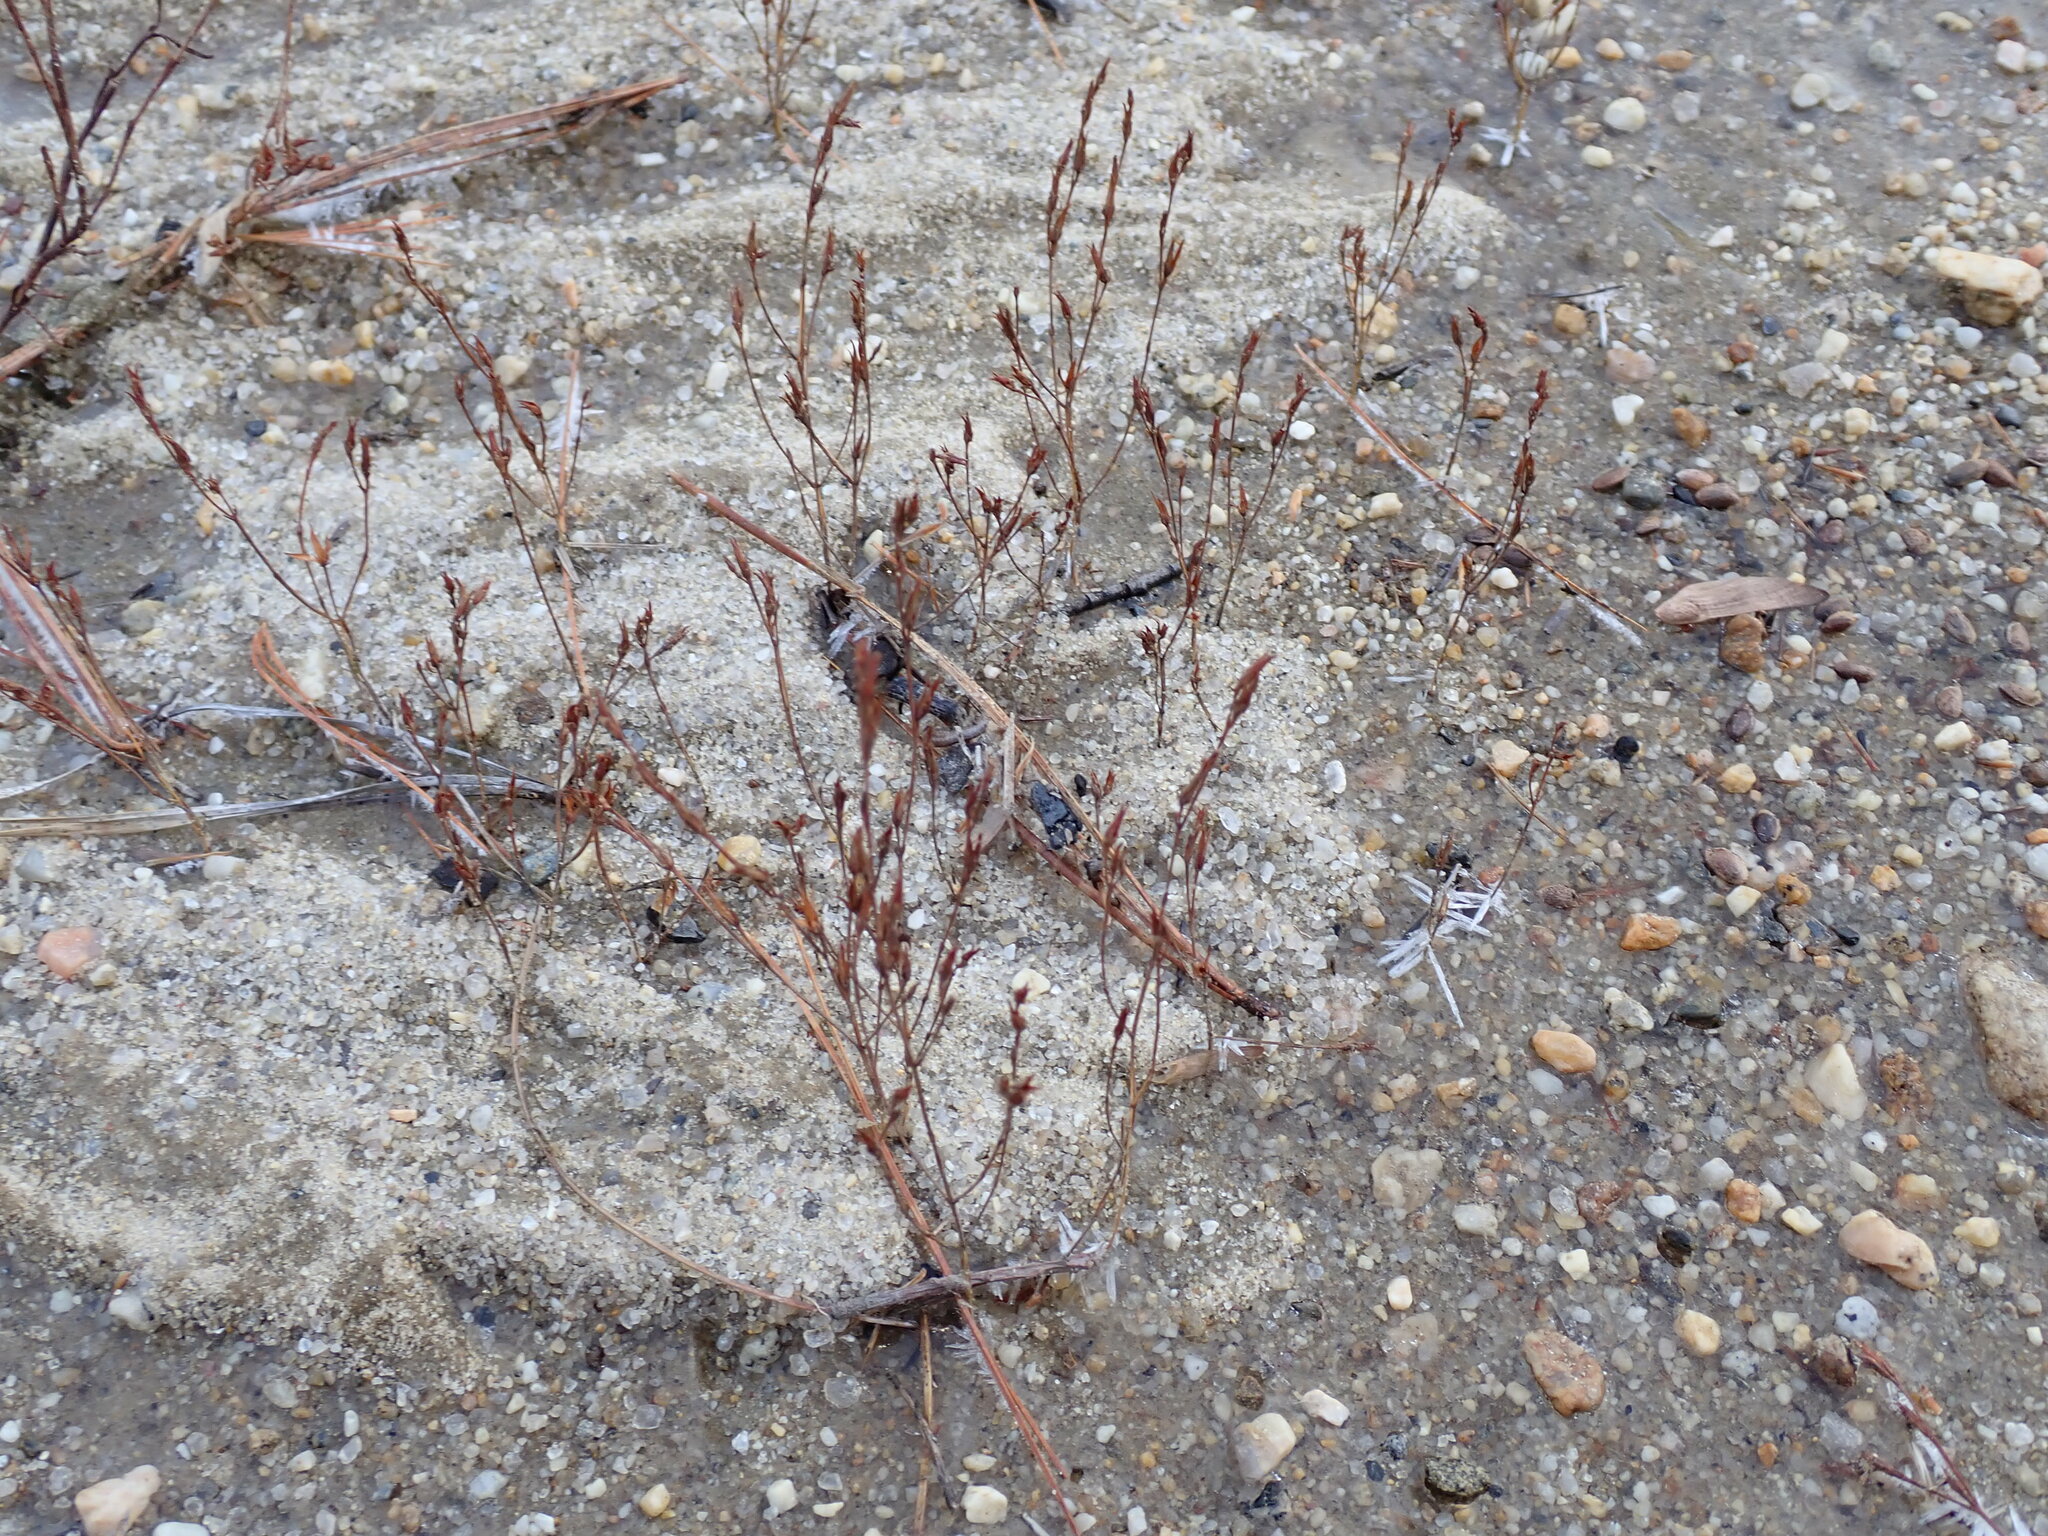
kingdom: Plantae
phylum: Tracheophyta
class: Magnoliopsida
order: Malpighiales
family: Hypericaceae
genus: Hypericum
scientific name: Hypericum gentianoides
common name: Gentian-leaved st. john's-wort
